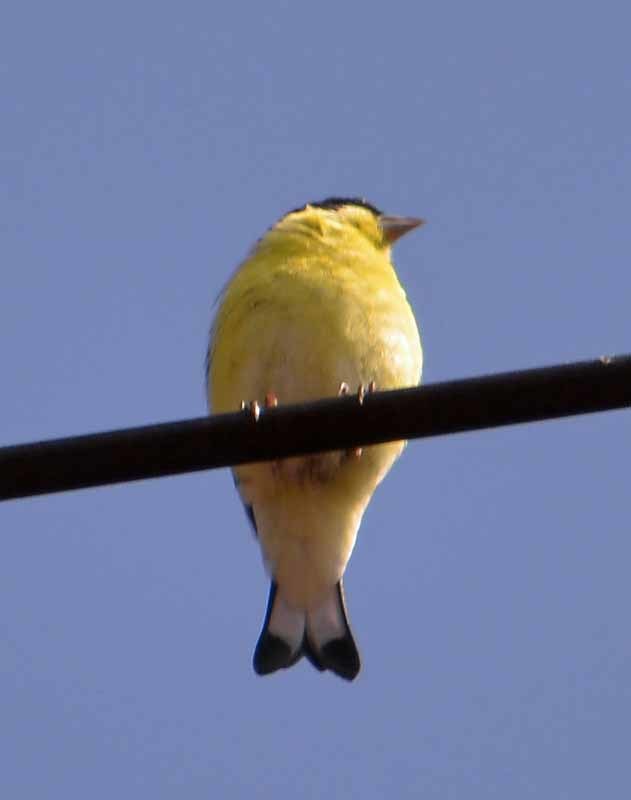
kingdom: Animalia
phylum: Chordata
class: Aves
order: Passeriformes
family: Fringillidae
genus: Spinus
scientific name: Spinus psaltria
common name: Lesser goldfinch
